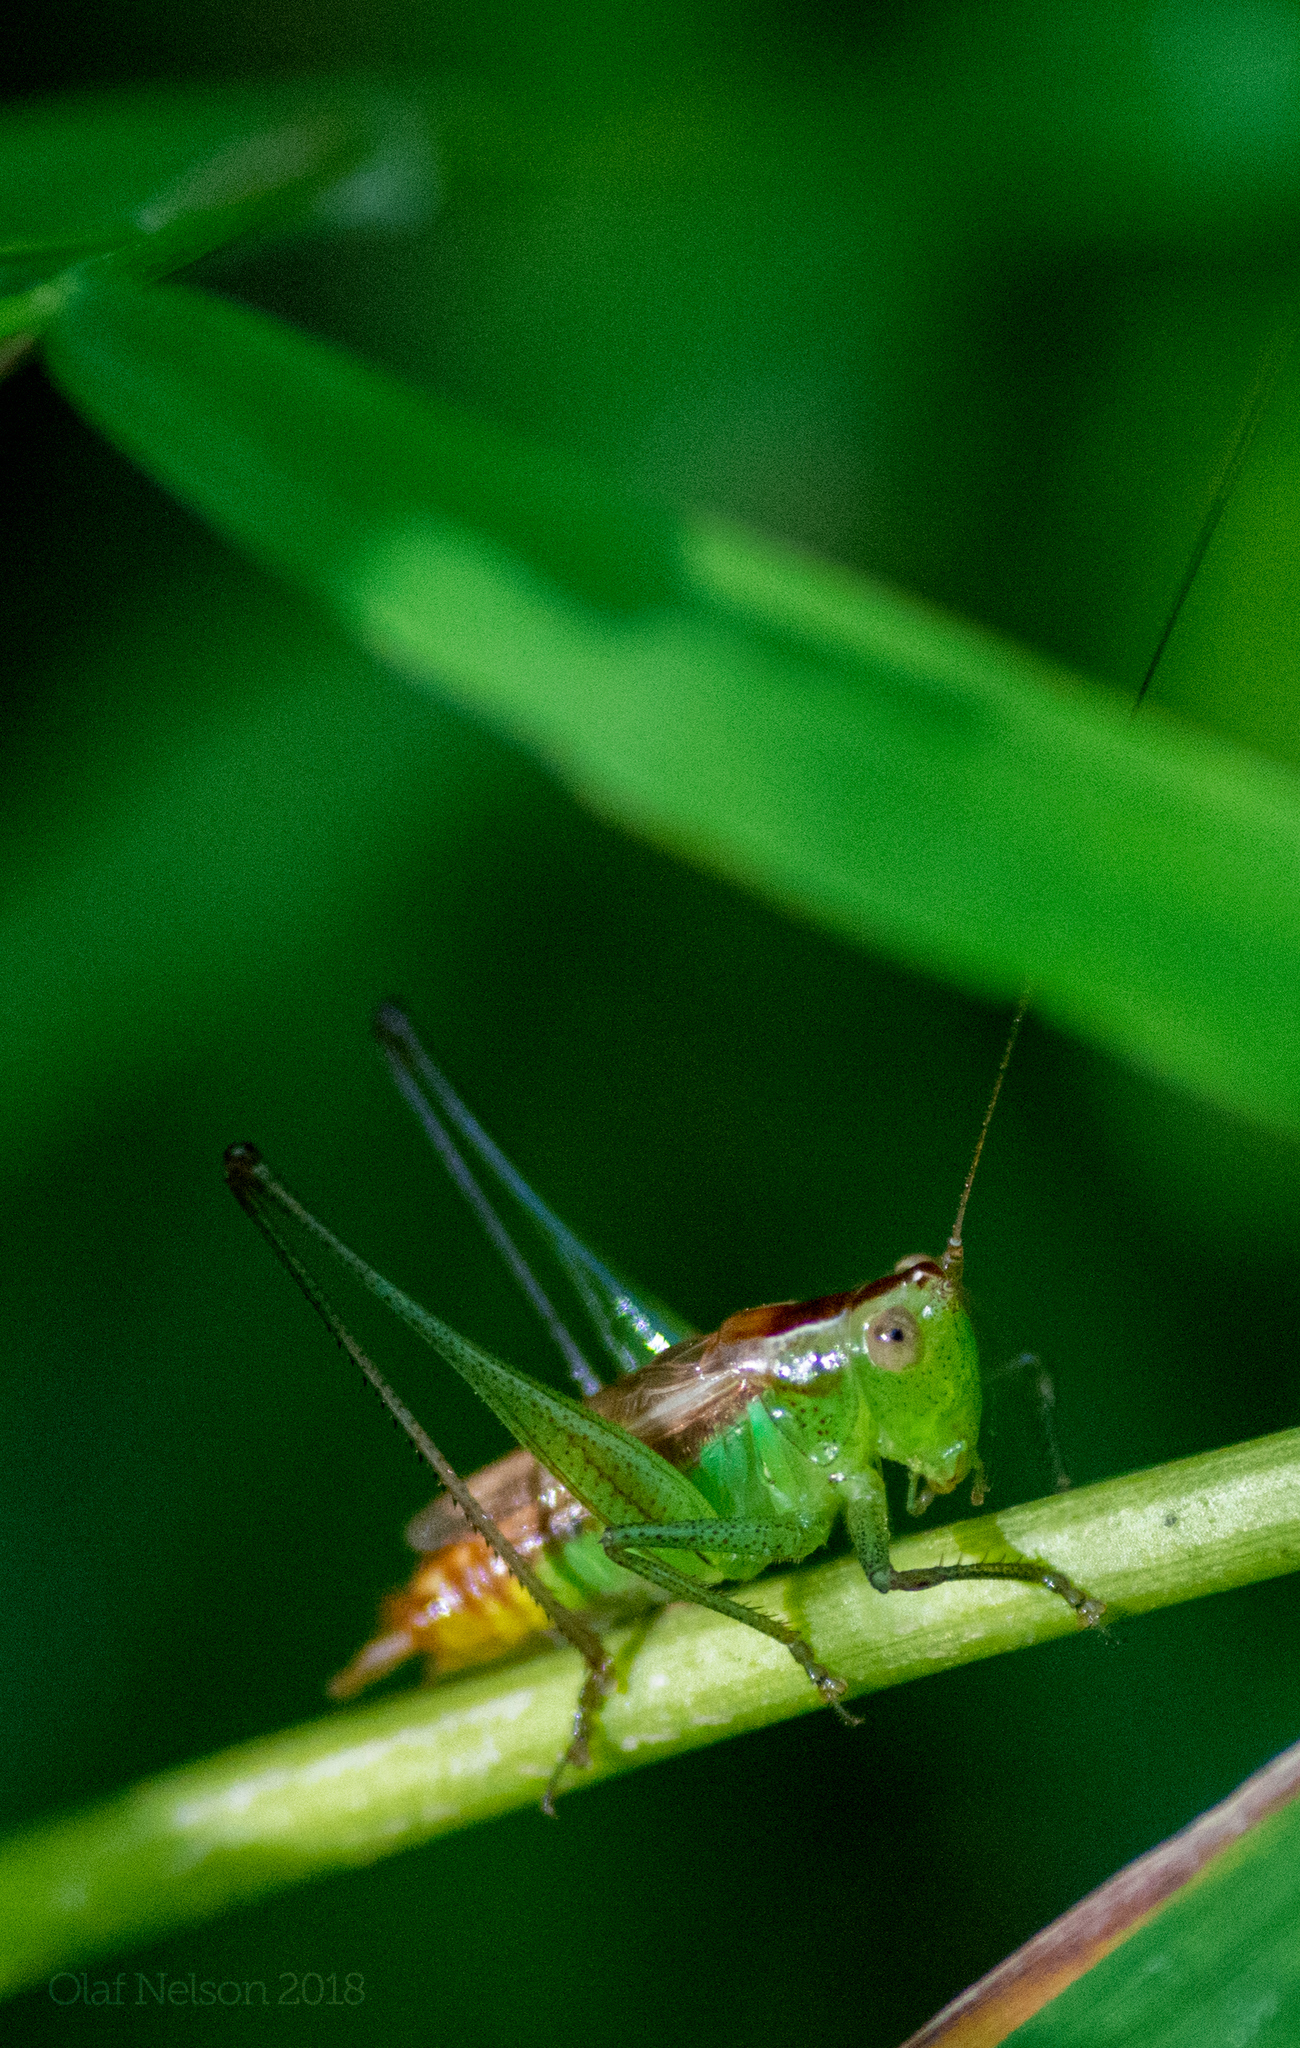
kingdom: Animalia
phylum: Arthropoda
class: Insecta
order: Orthoptera
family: Tettigoniidae
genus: Conocephalus
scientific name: Conocephalus brevipennis
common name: Short-winged meadow katydid
